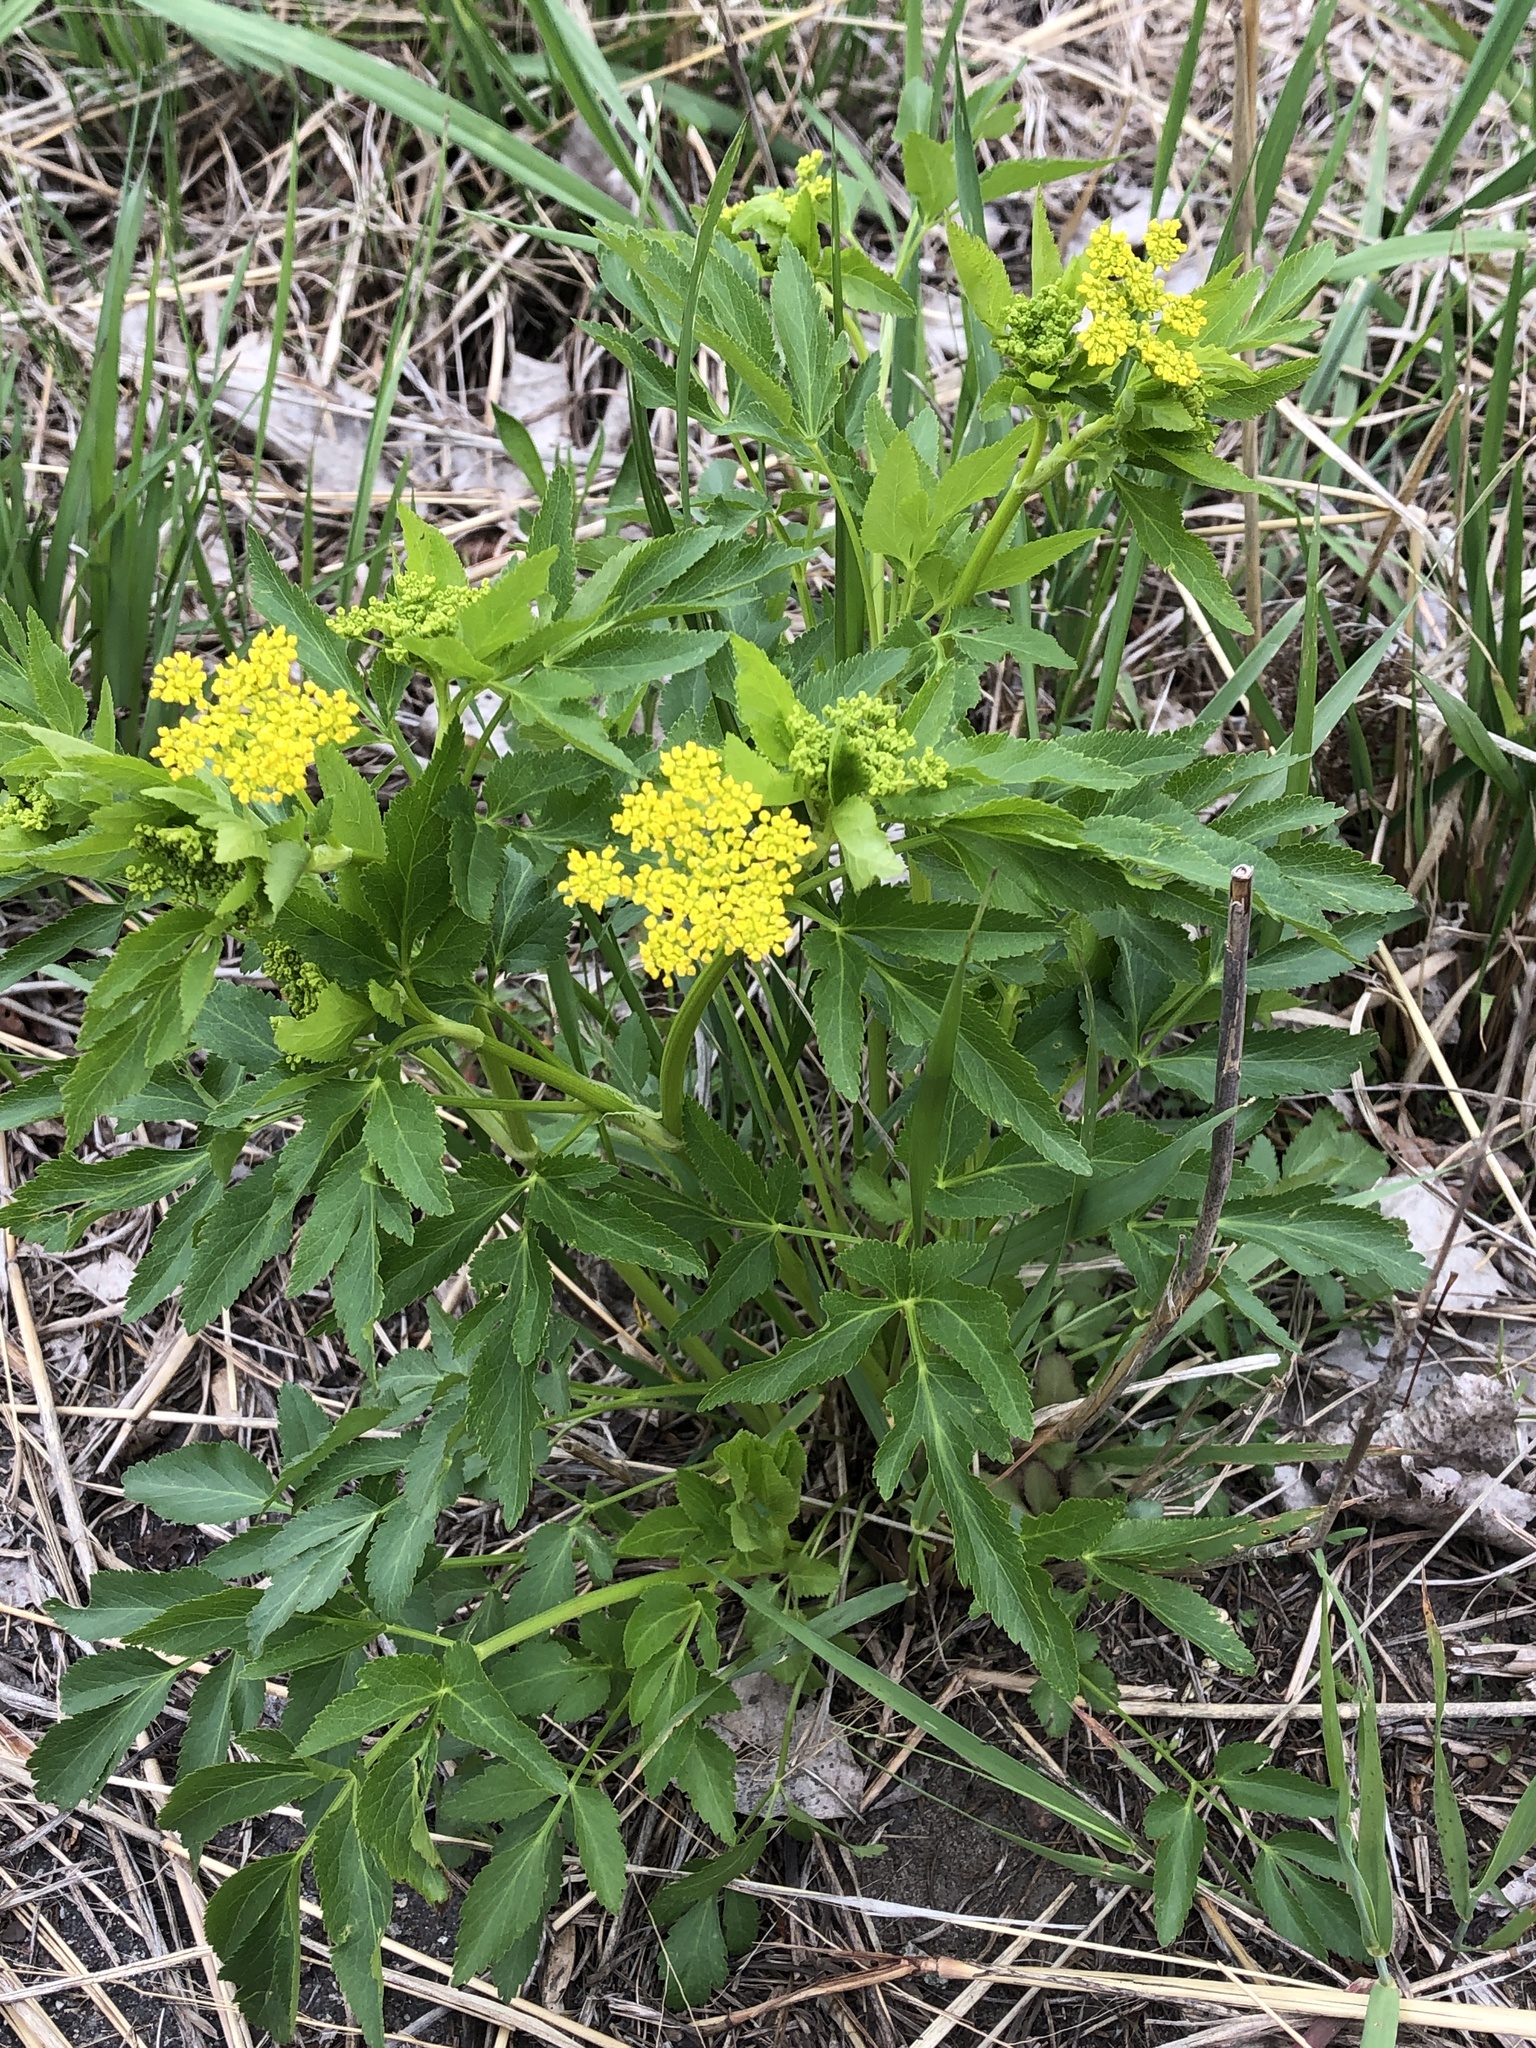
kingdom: Plantae
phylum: Tracheophyta
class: Magnoliopsida
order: Apiales
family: Apiaceae
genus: Zizia
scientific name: Zizia aurea
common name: Golden alexanders
